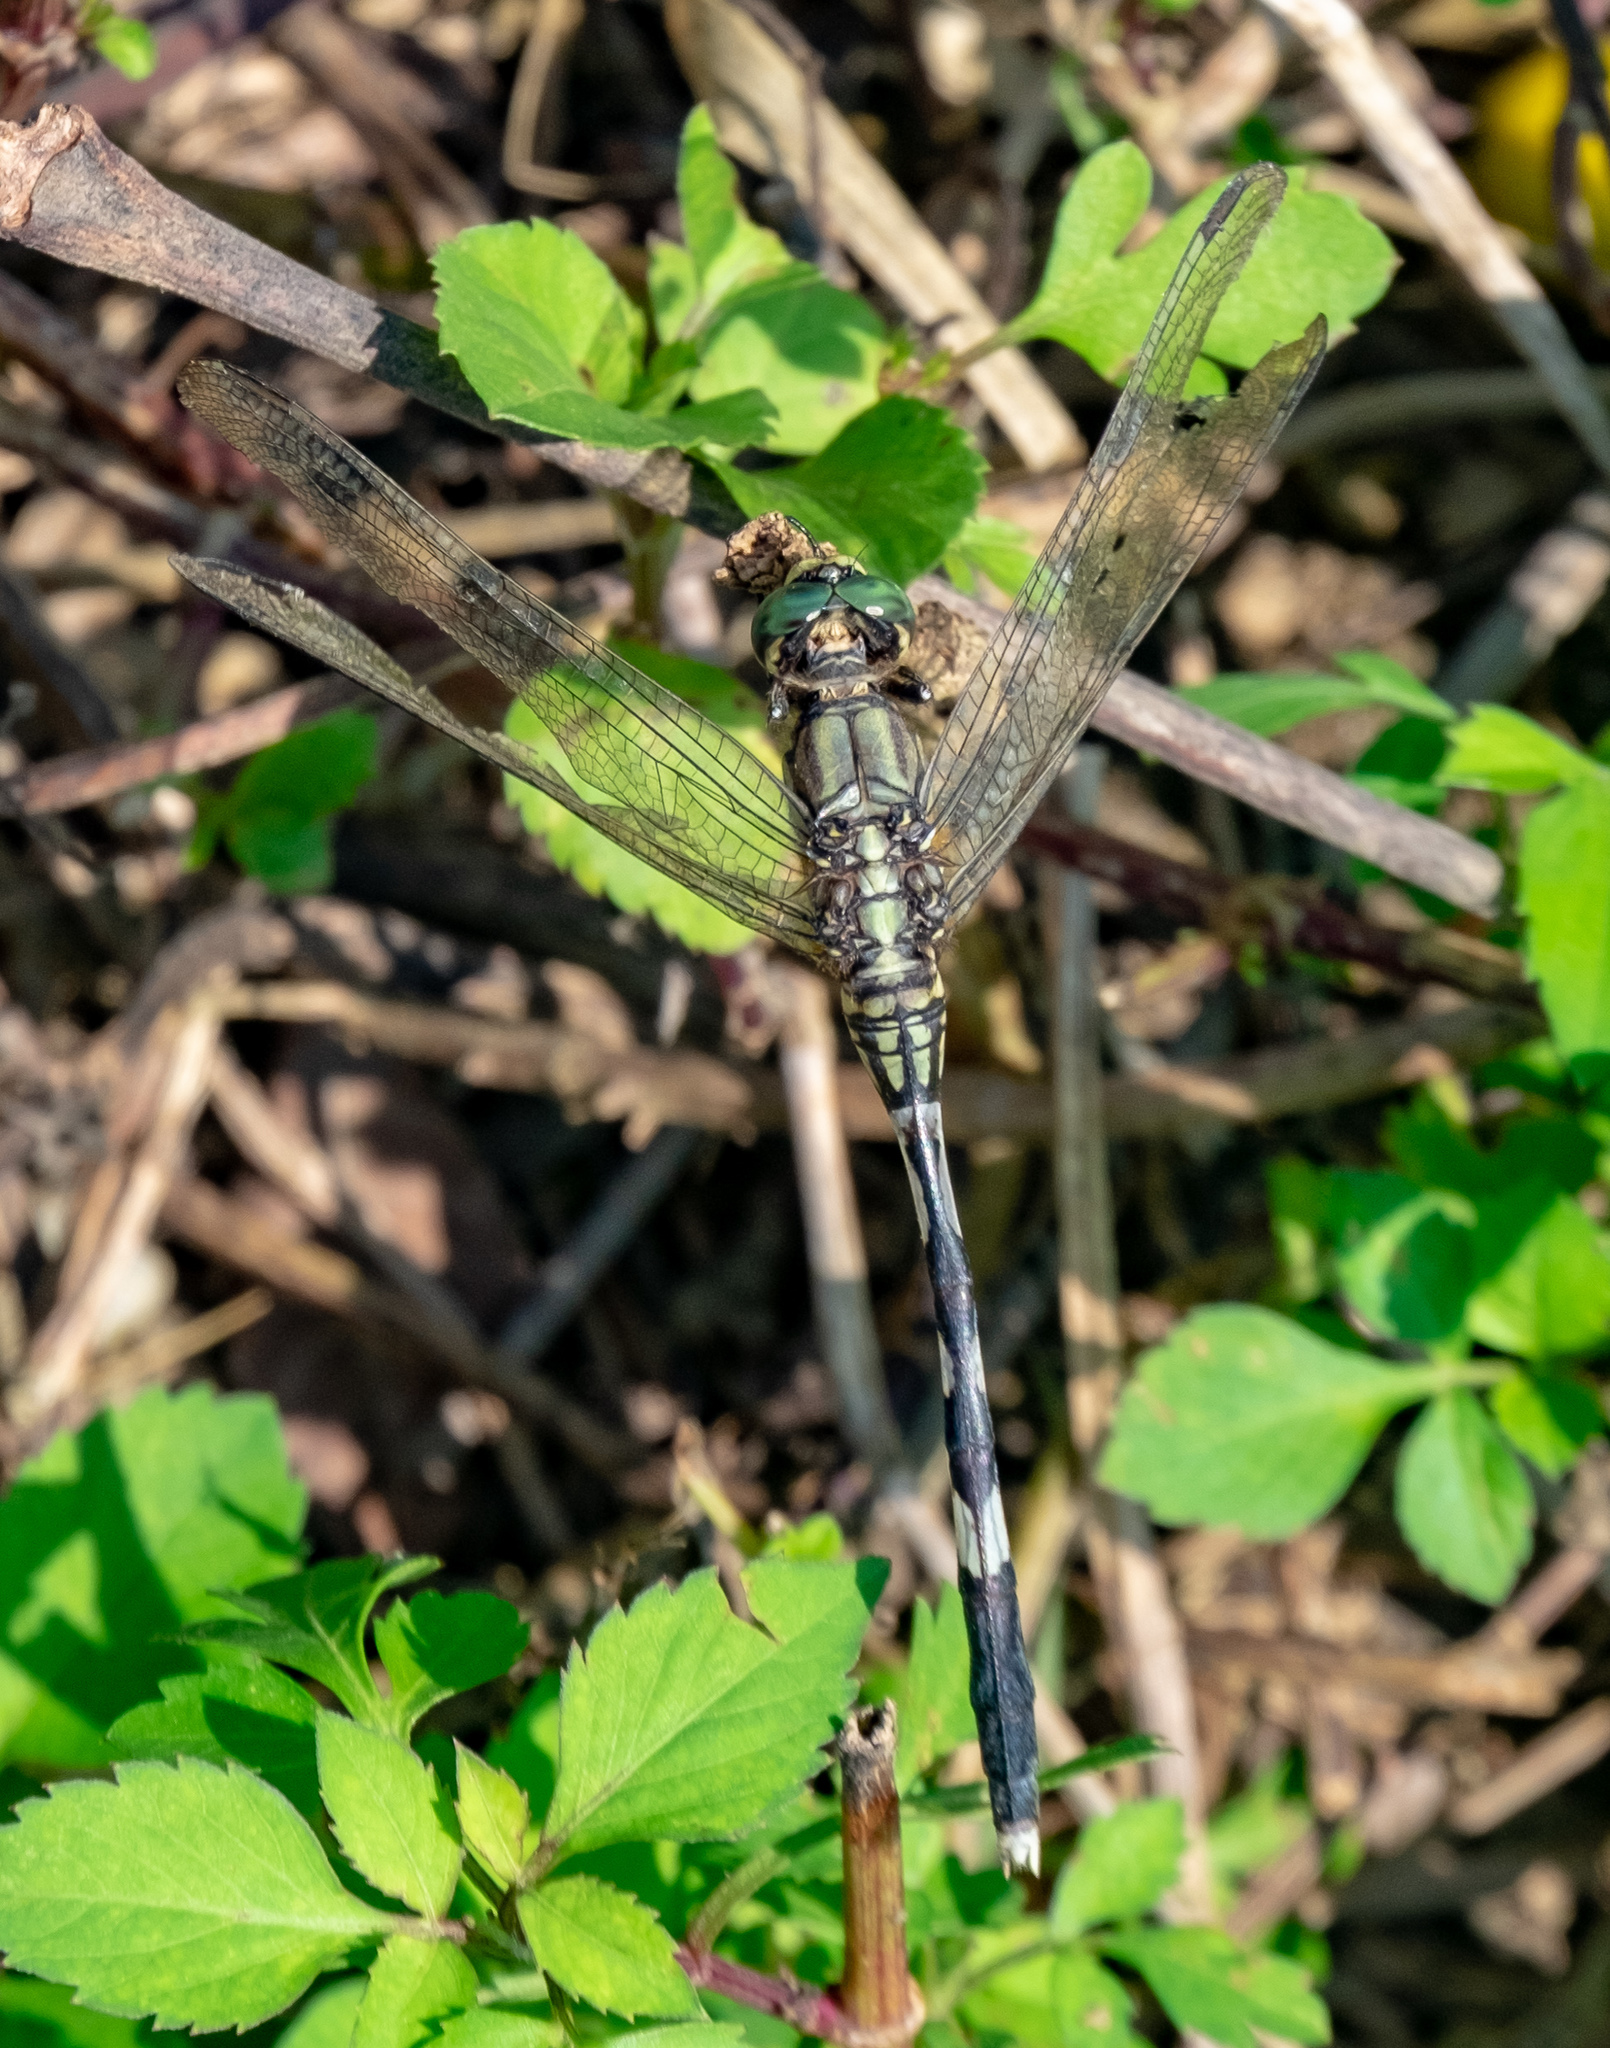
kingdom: Animalia
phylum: Arthropoda
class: Insecta
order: Odonata
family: Libellulidae
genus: Orthetrum
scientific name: Orthetrum sabina
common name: Slender skimmer
